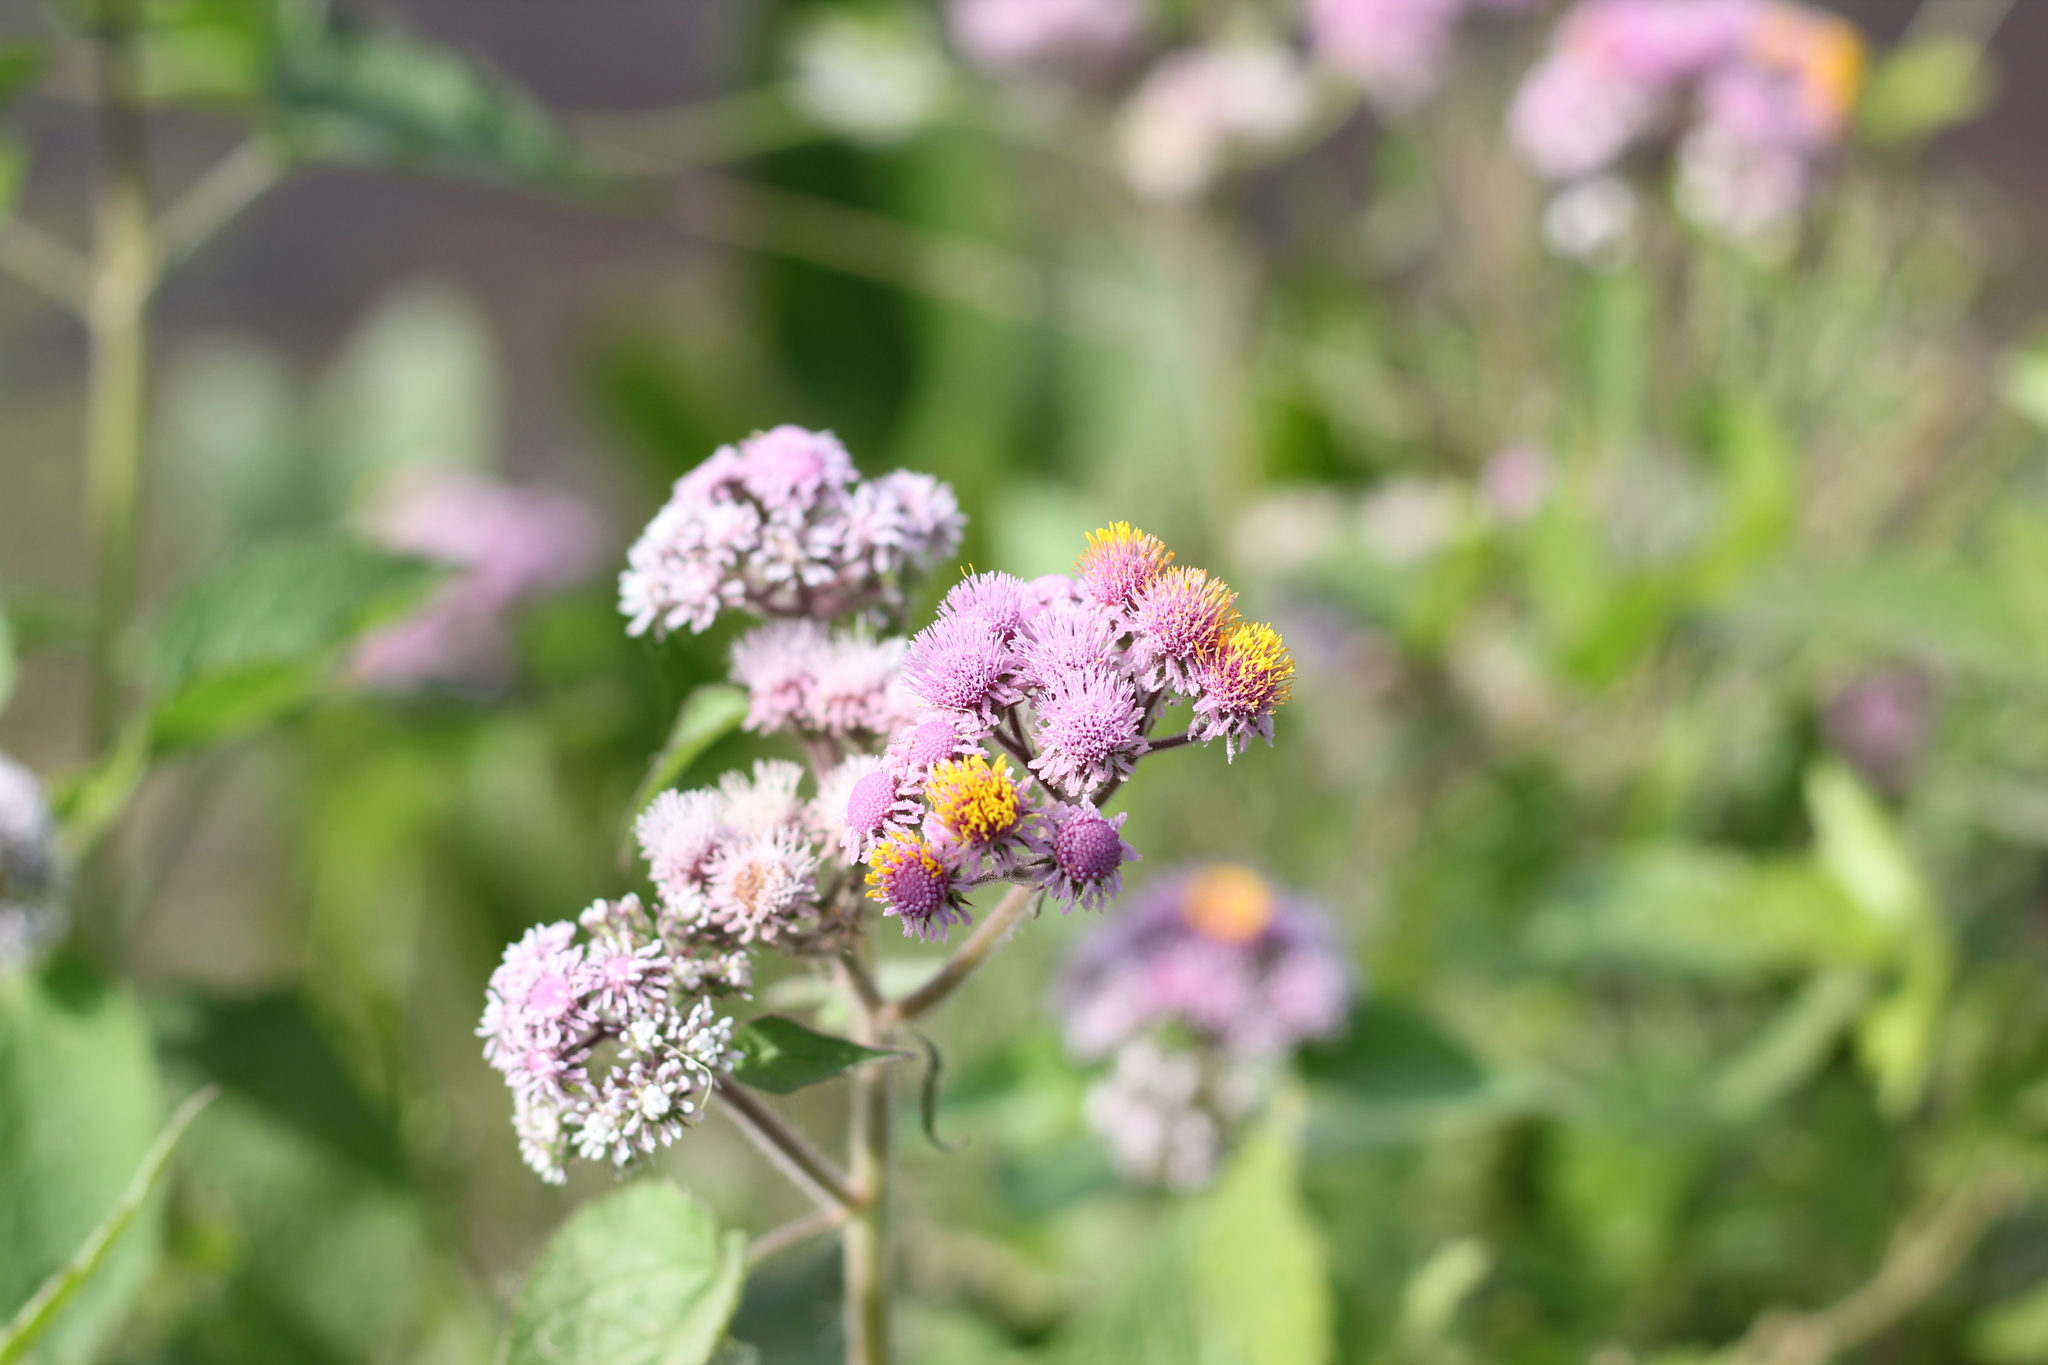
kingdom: Plantae
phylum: Tracheophyta
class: Magnoliopsida
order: Asterales
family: Asteraceae
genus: Urolepis
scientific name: Urolepis hecatantha
